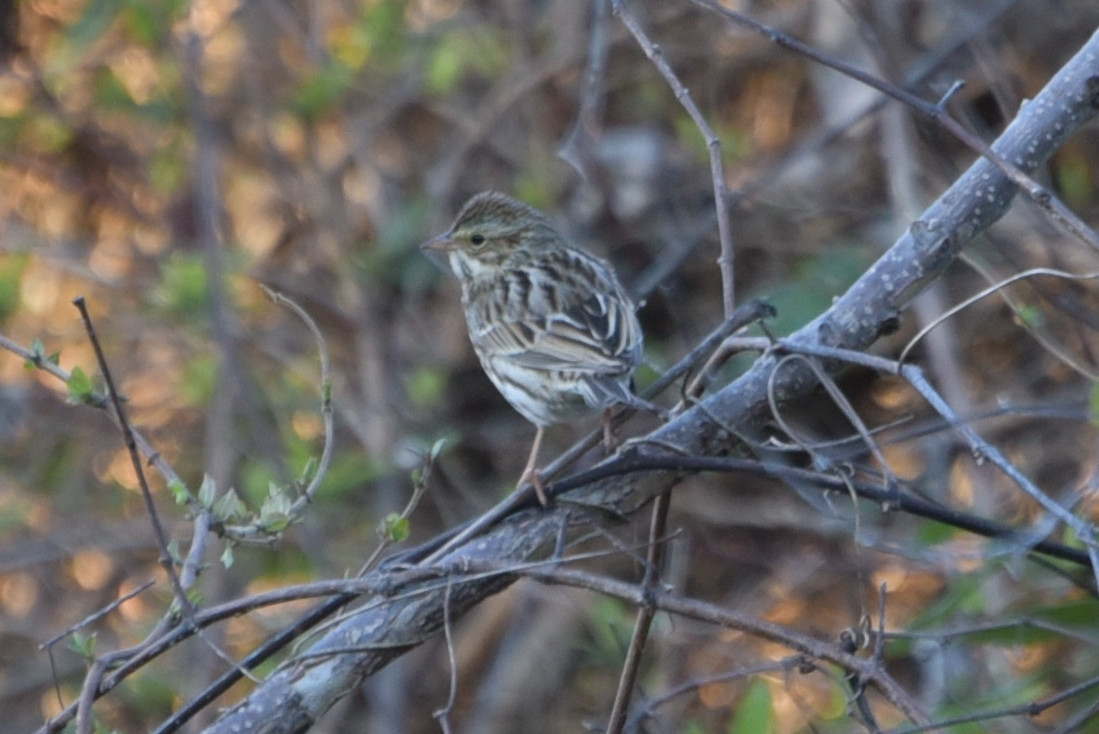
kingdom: Animalia
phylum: Chordata
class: Aves
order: Passeriformes
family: Passerellidae
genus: Passerculus
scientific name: Passerculus sandwichensis
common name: Savannah sparrow
